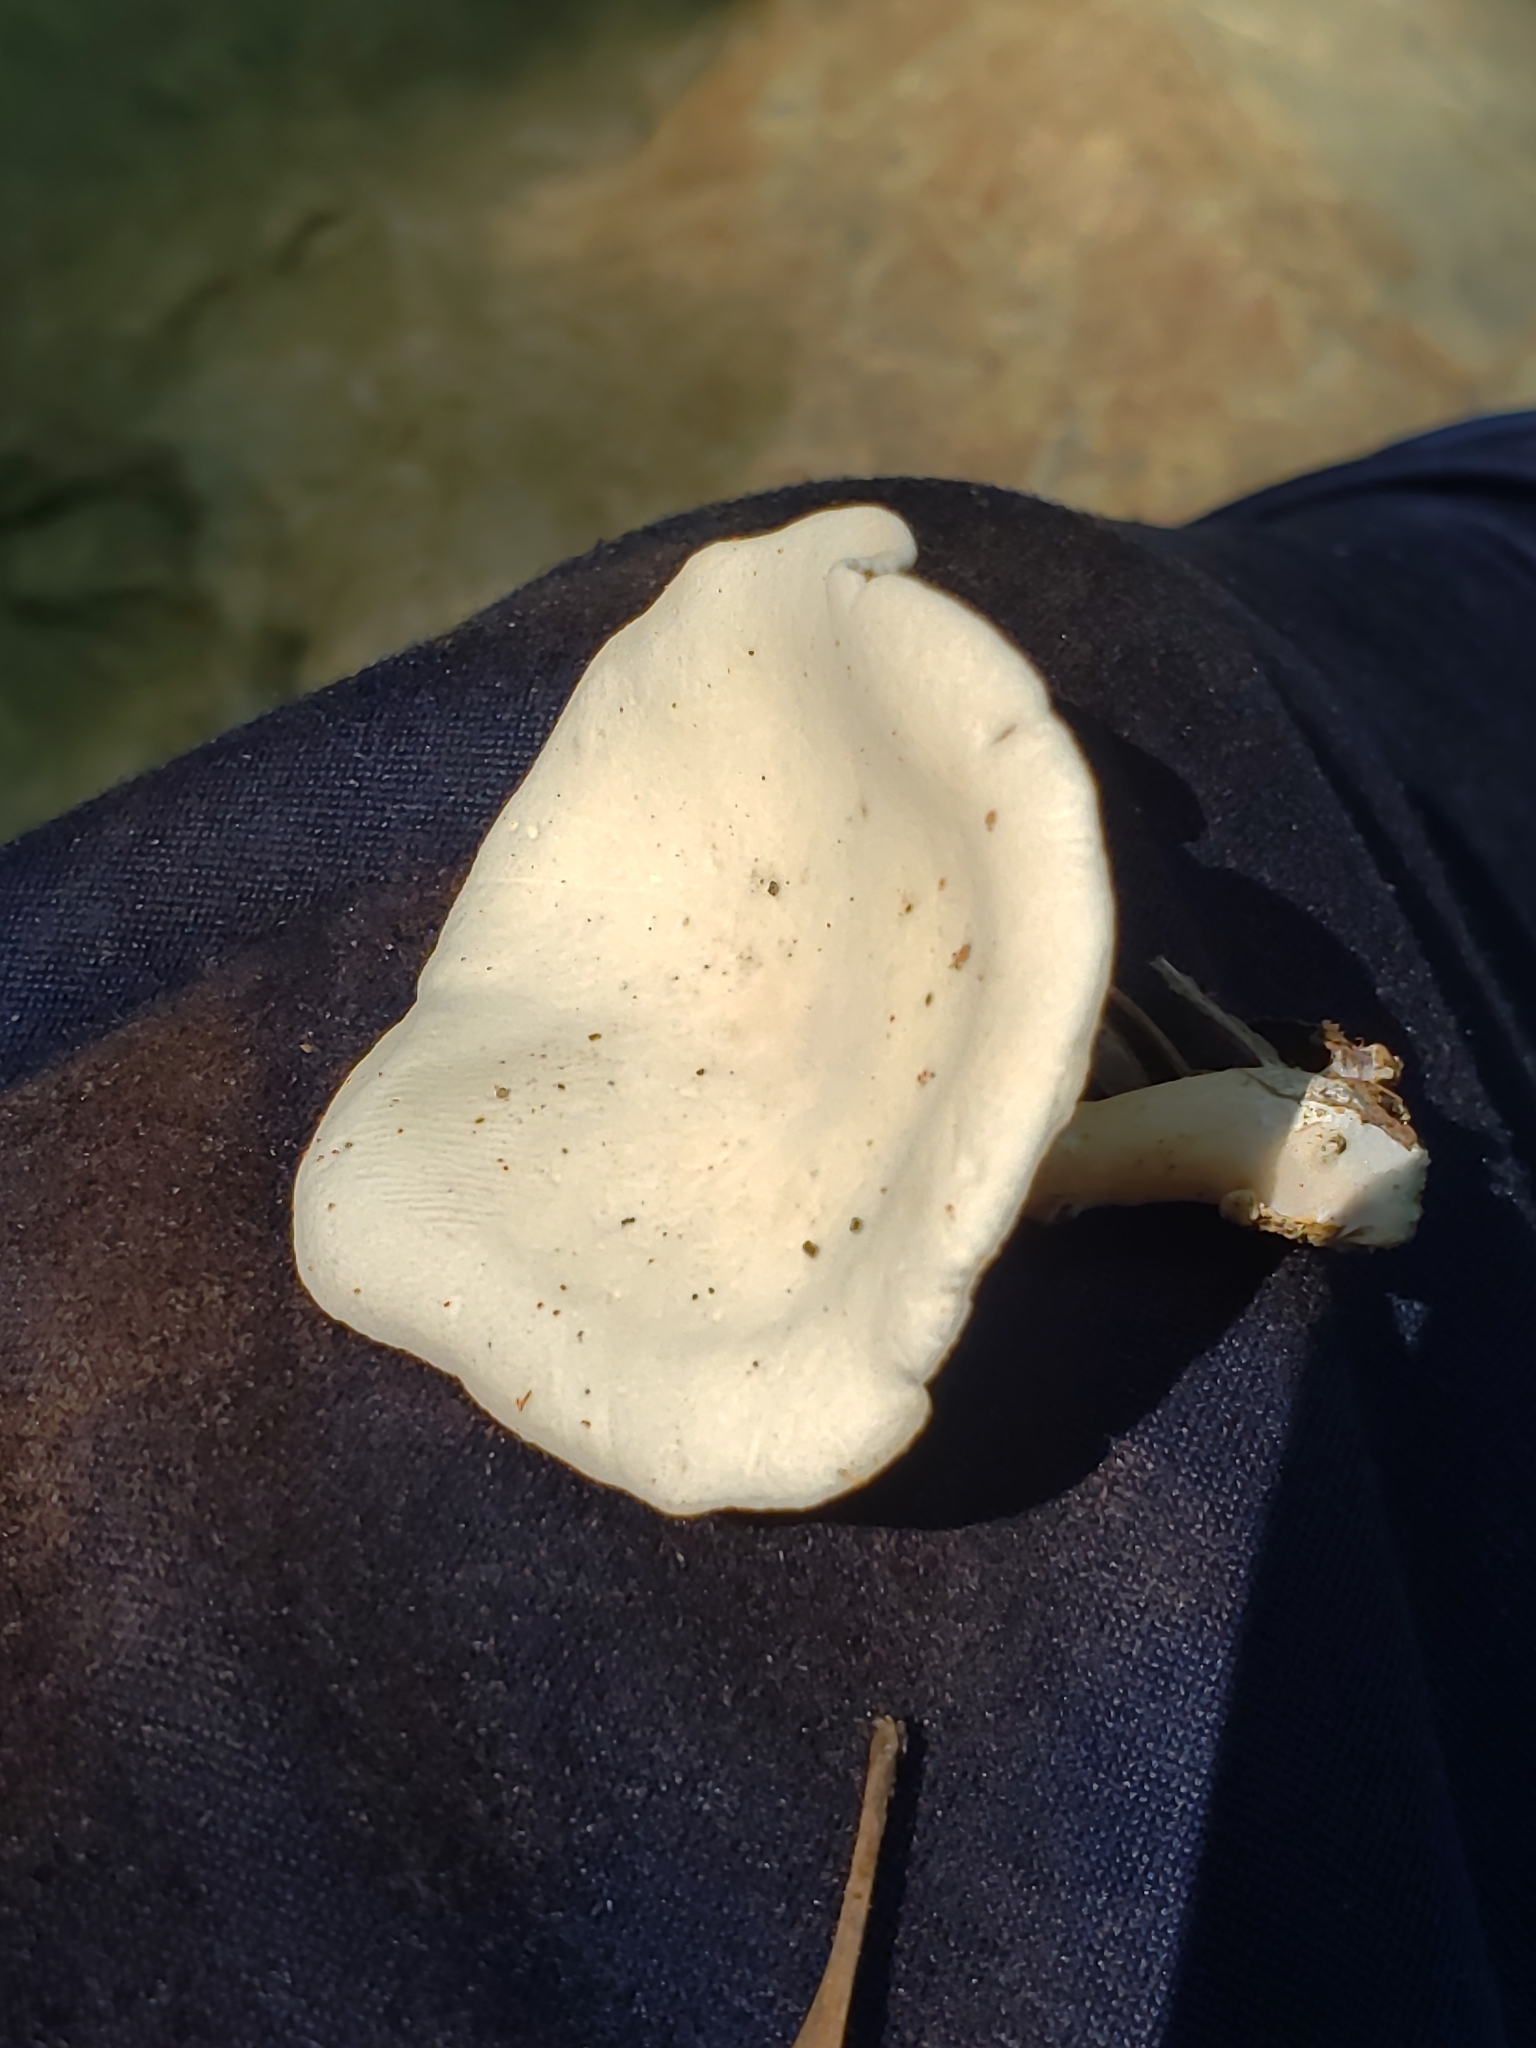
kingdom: Fungi
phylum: Basidiomycota
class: Agaricomycetes
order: Agaricales
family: Entolomataceae
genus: Clitopilus
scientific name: Clitopilus prunulus
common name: The miller
